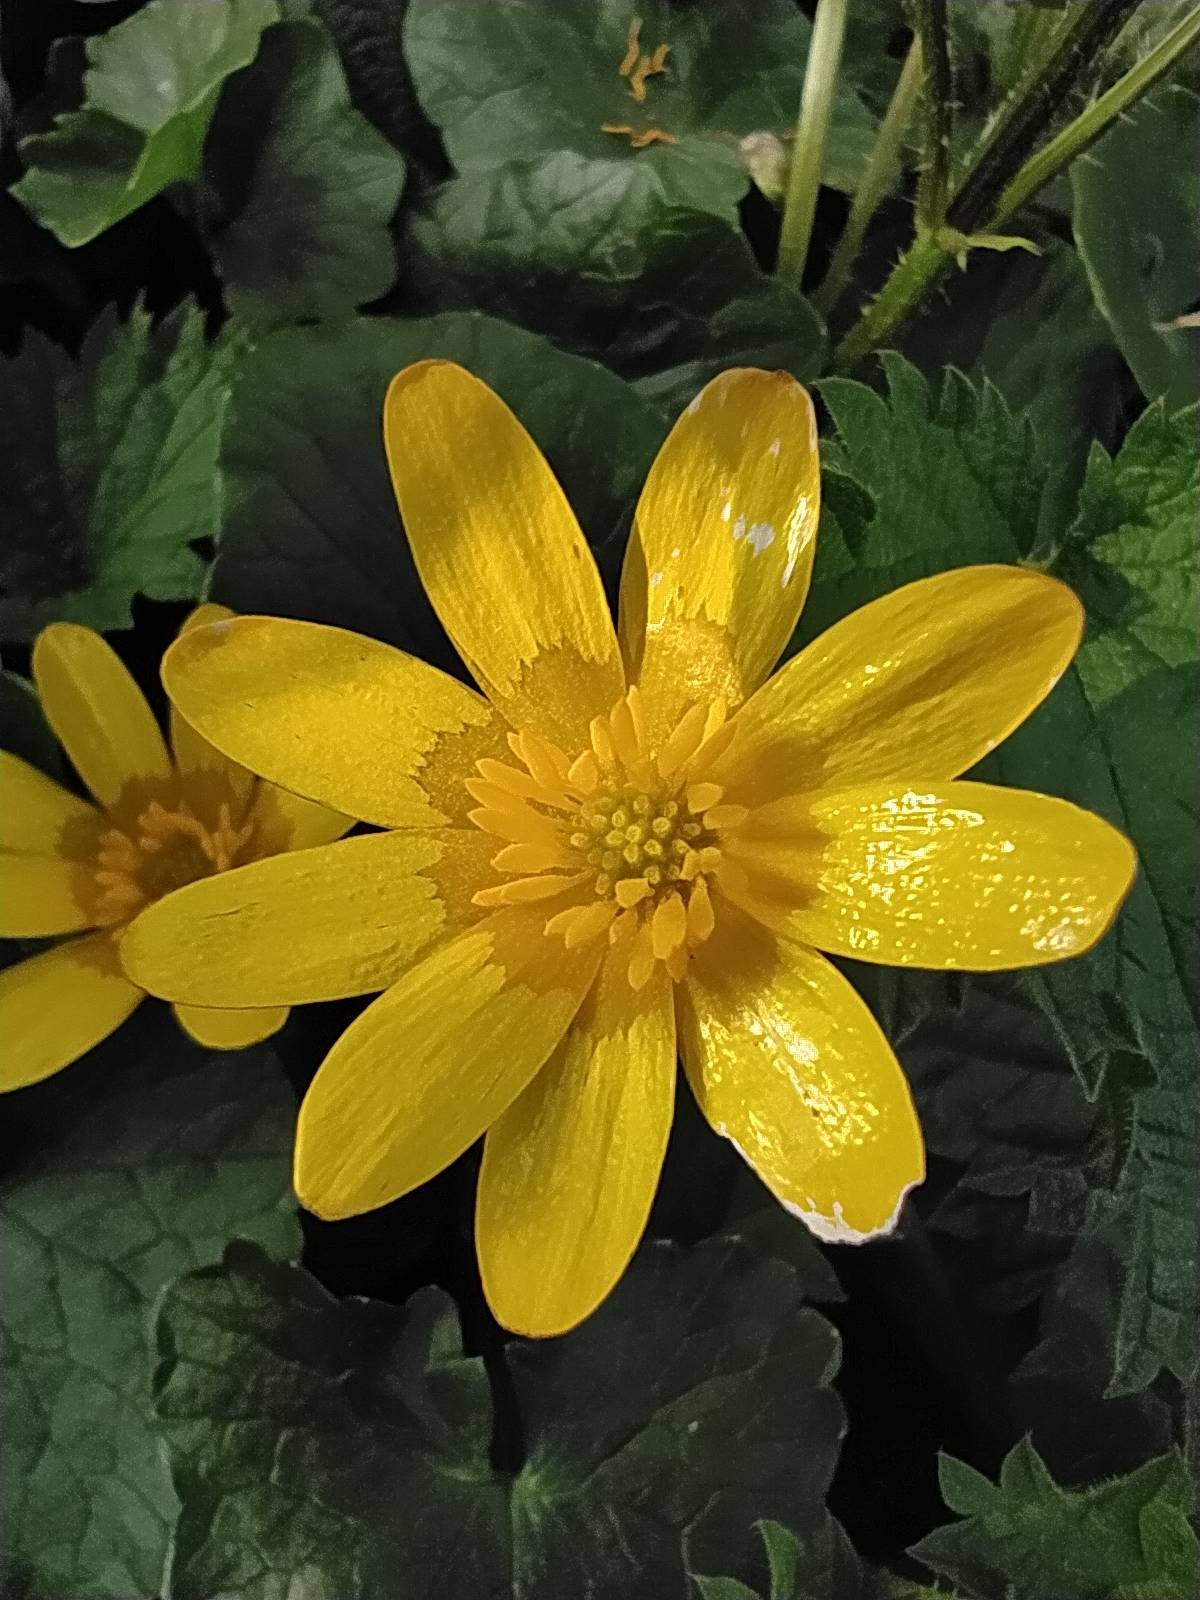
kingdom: Plantae
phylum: Tracheophyta
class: Magnoliopsida
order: Ranunculales
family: Ranunculaceae
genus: Ficaria
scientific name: Ficaria verna
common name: Lesser celandine
